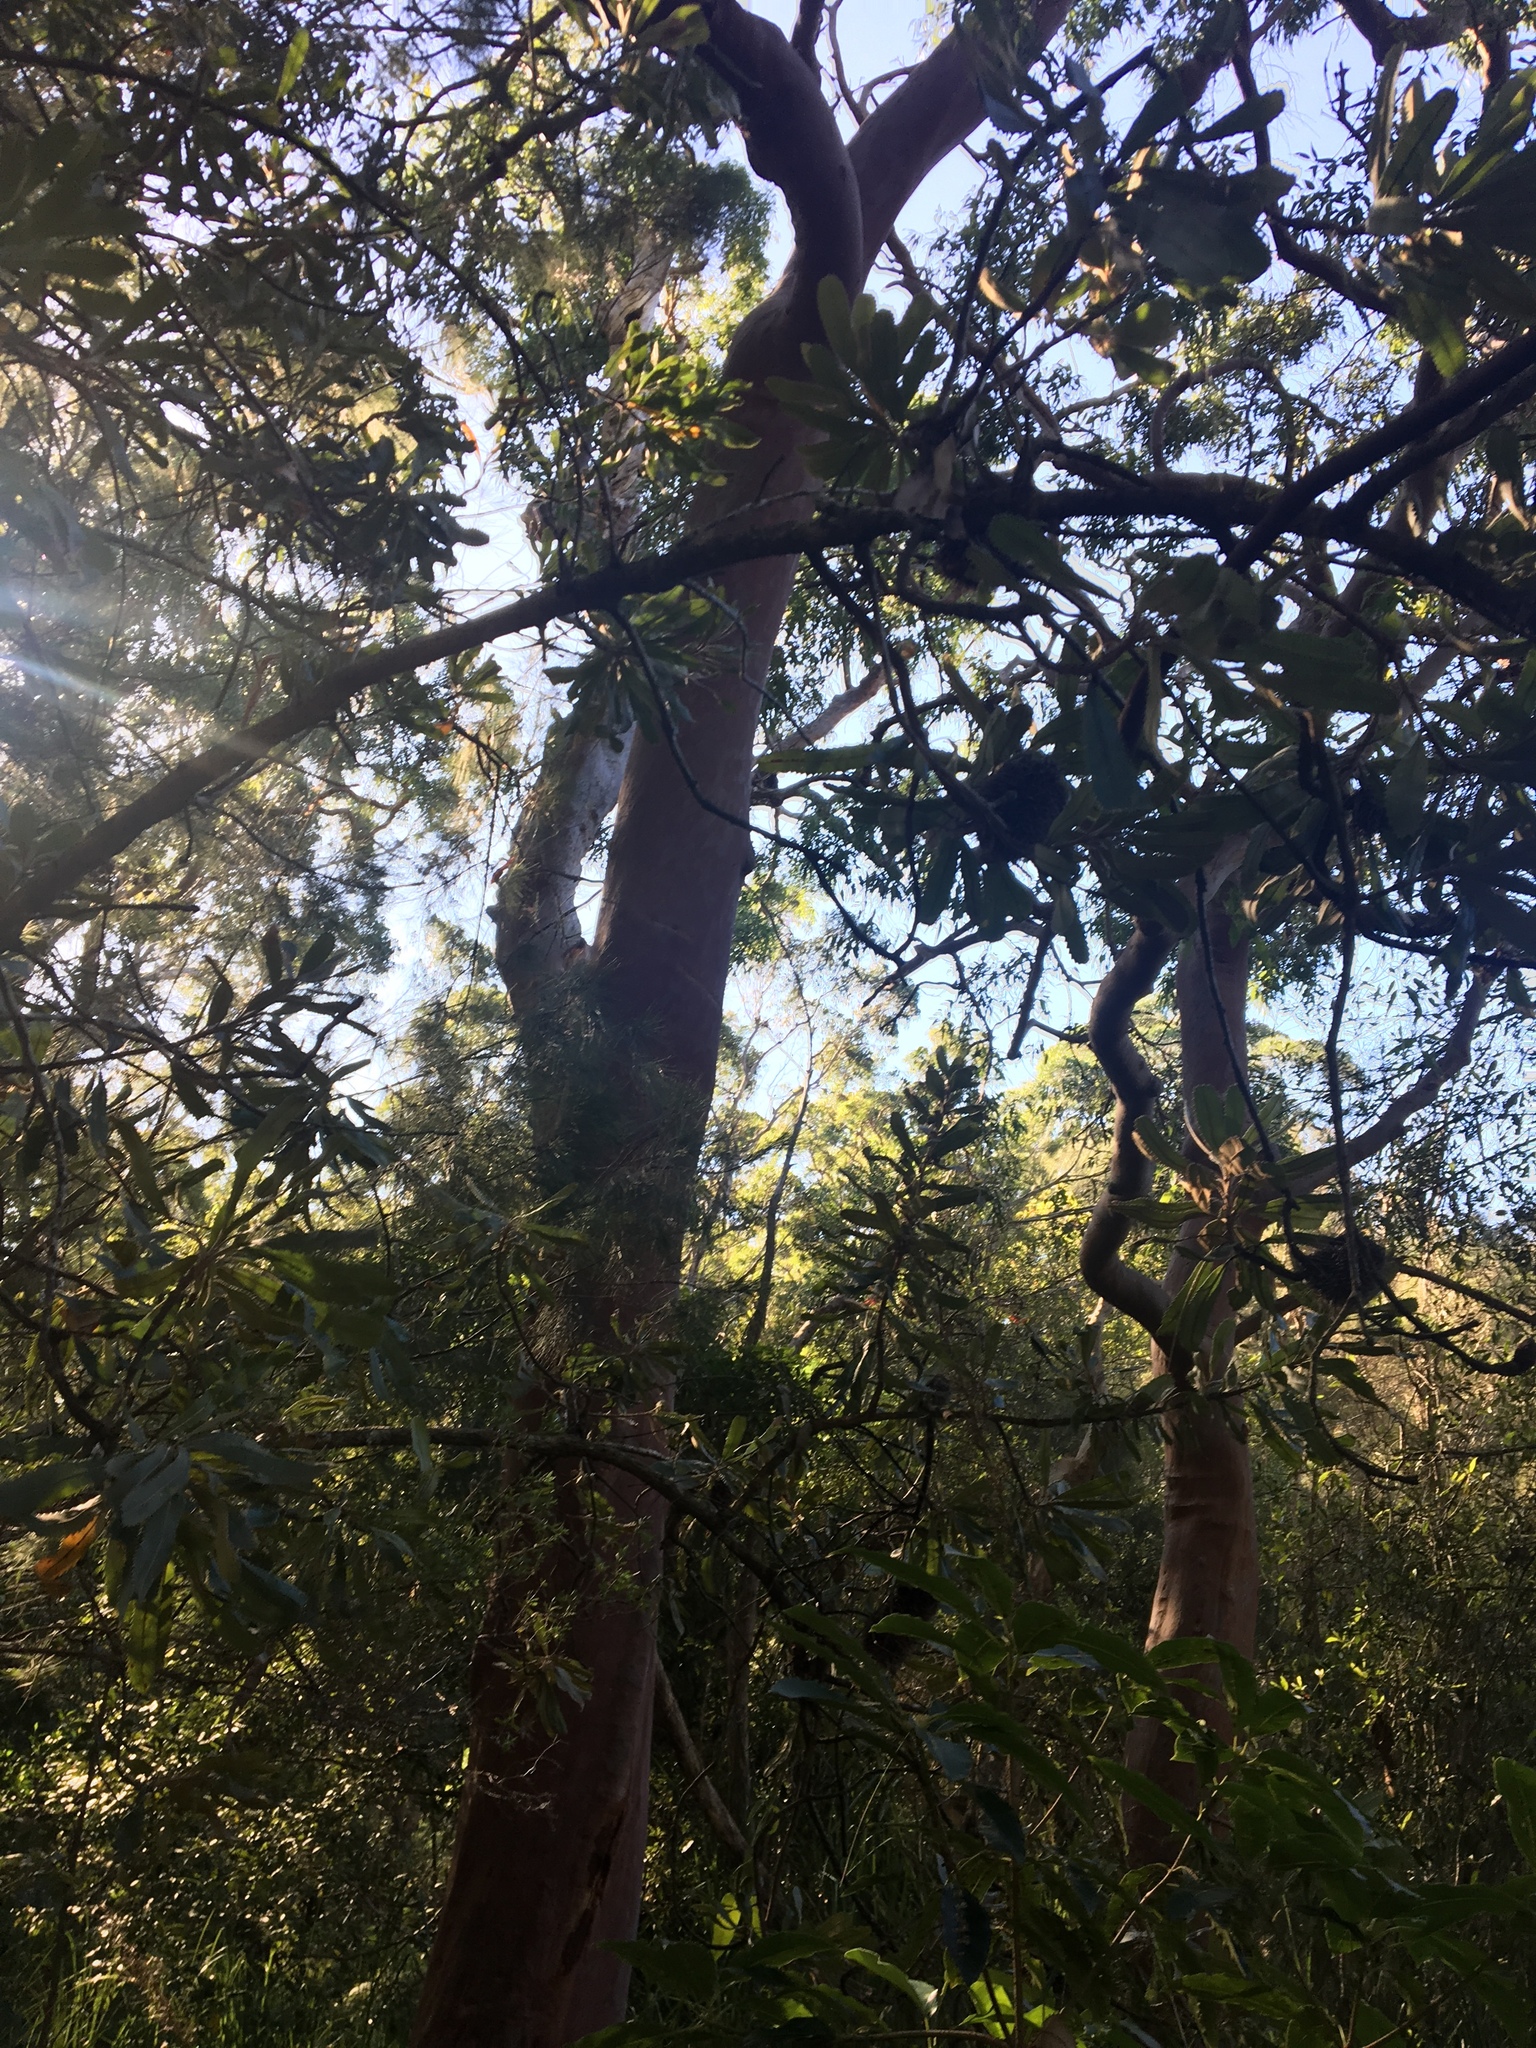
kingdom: Plantae
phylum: Tracheophyta
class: Magnoliopsida
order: Proteales
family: Proteaceae
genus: Banksia
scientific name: Banksia serrata
